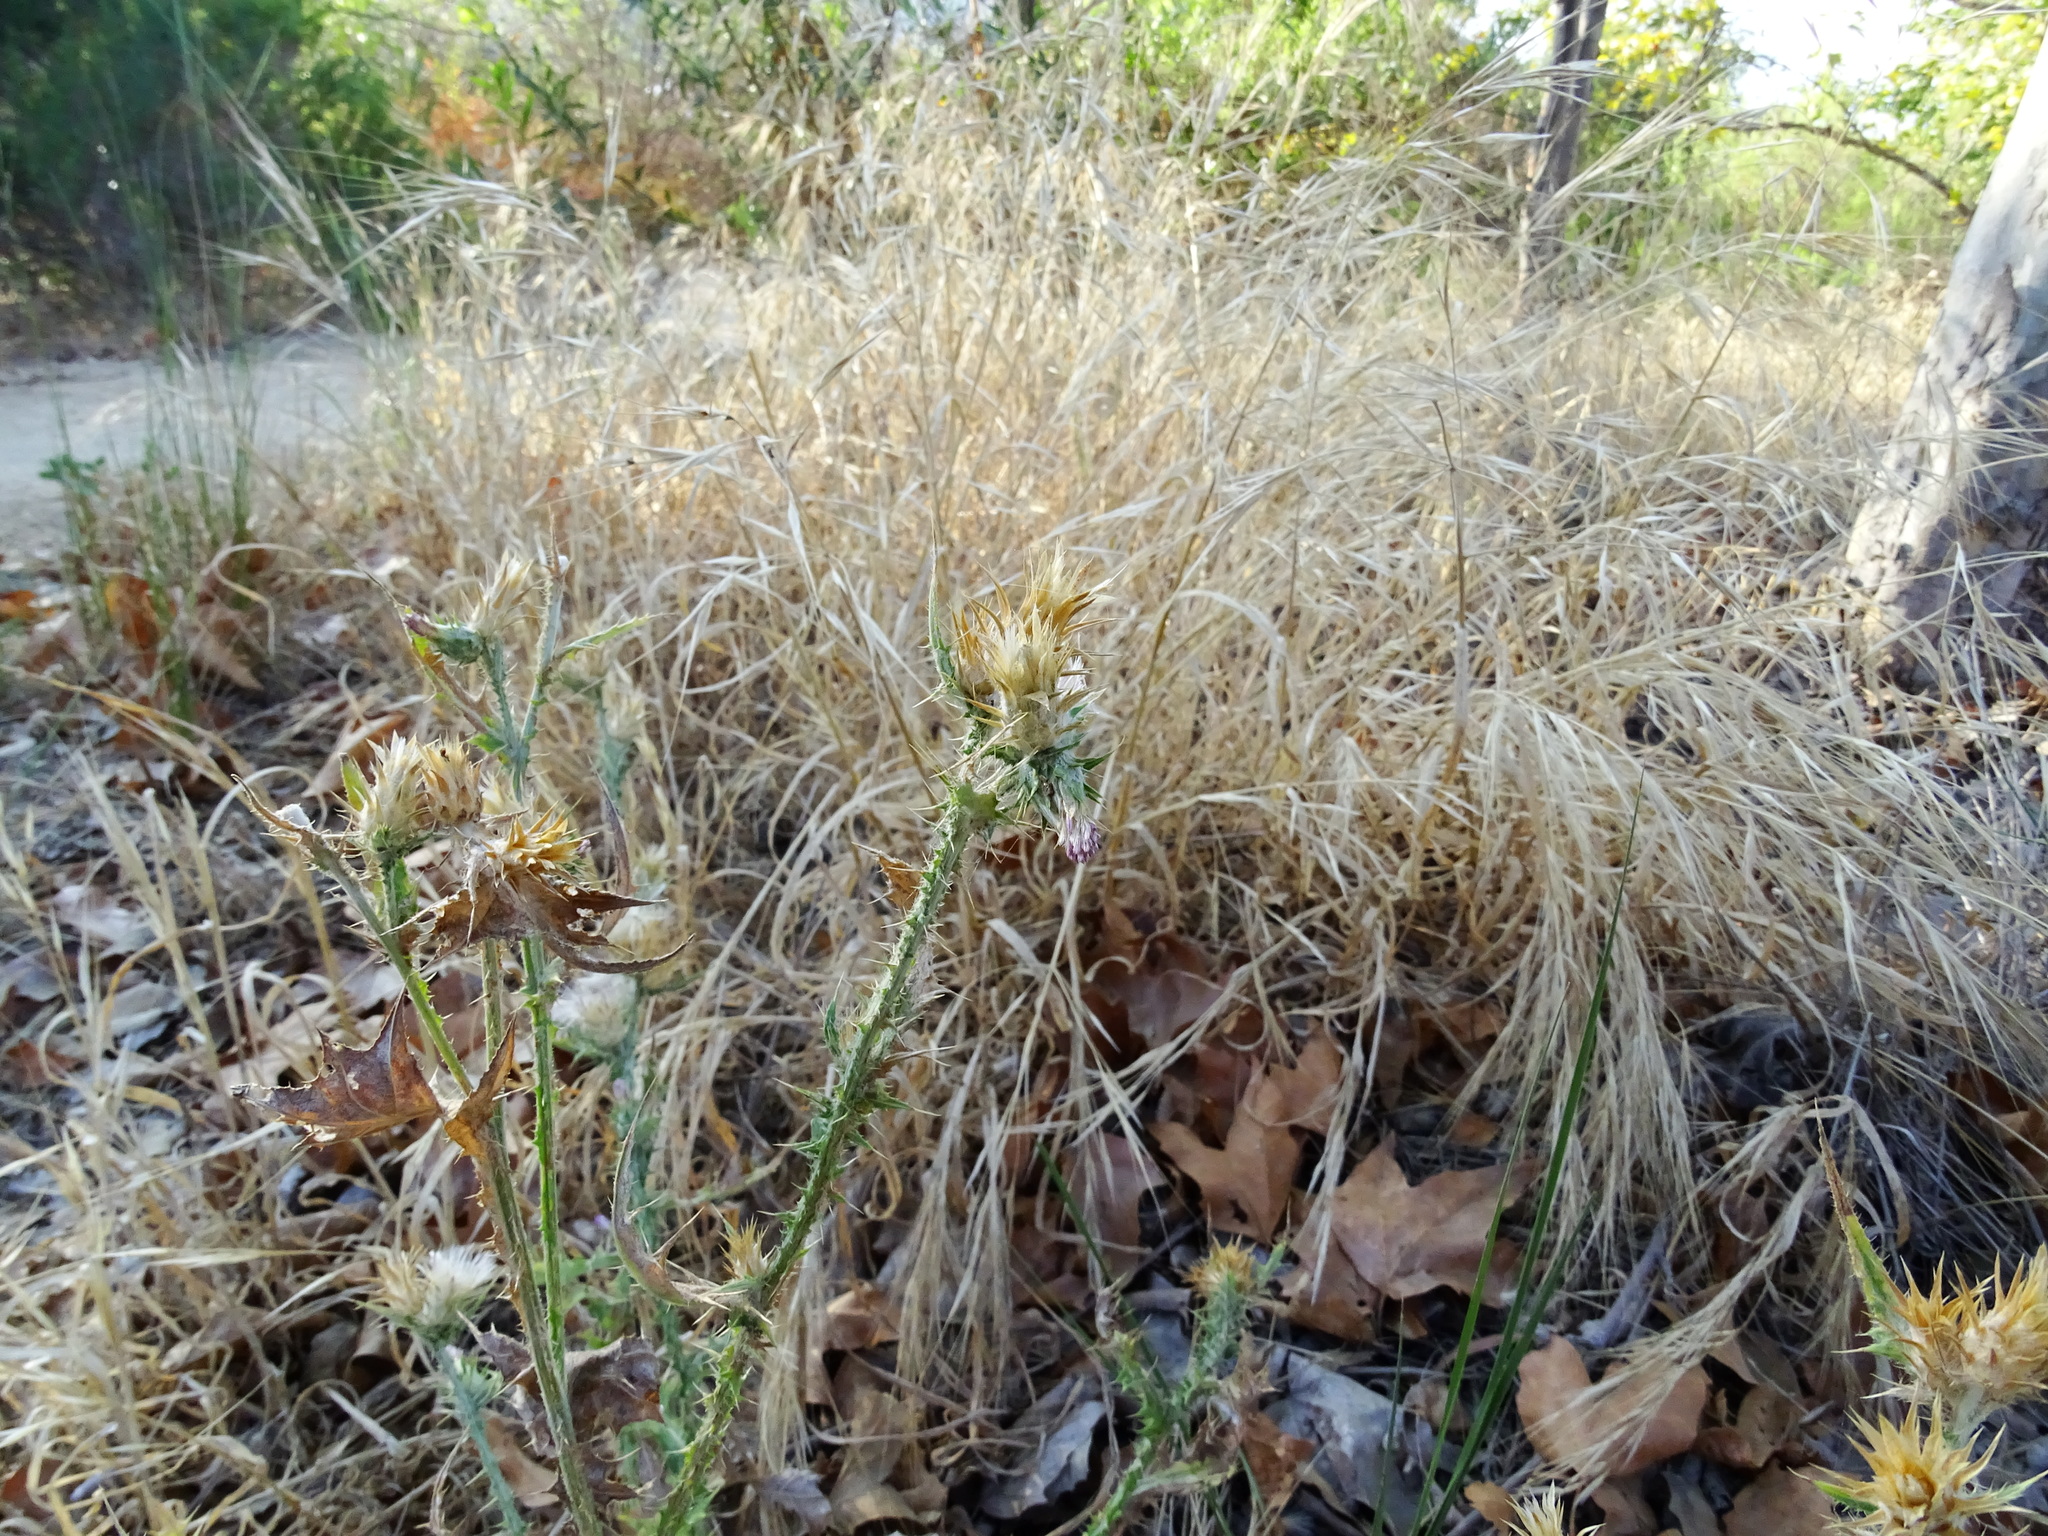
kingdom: Plantae
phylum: Tracheophyta
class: Magnoliopsida
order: Asterales
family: Asteraceae
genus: Carduus
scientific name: Carduus pycnocephalus
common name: Plymouth thistle
